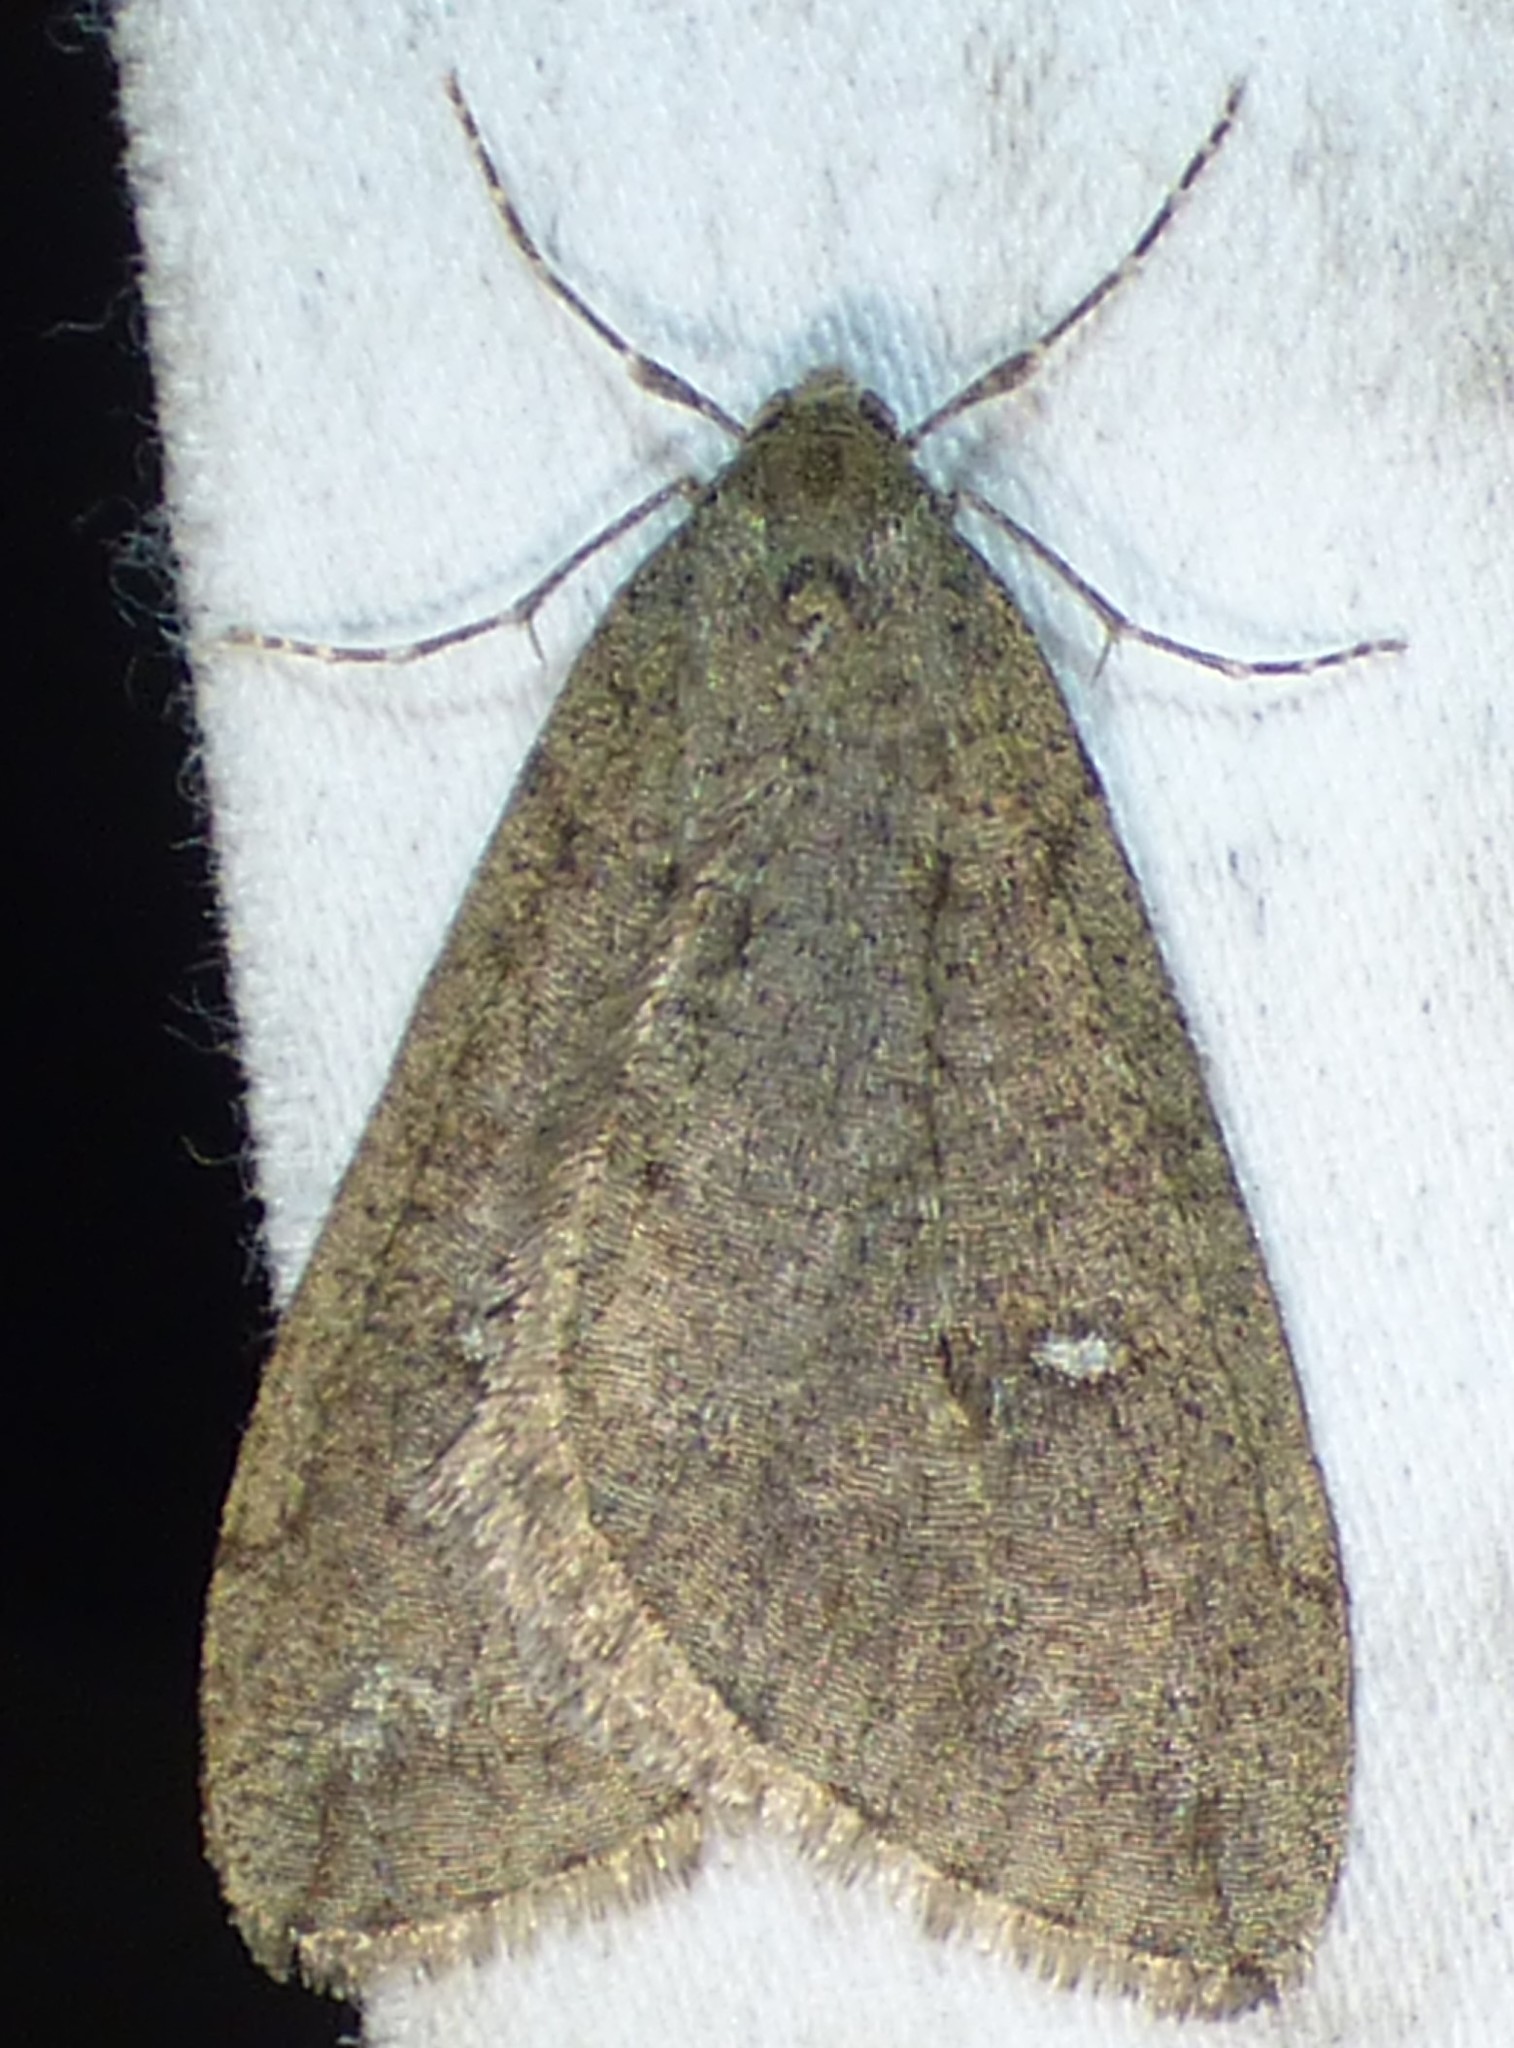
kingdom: Animalia
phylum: Arthropoda
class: Insecta
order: Lepidoptera
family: Geometridae
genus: Paleacrita
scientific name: Paleacrita merriccata
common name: White-spotted canker worm
